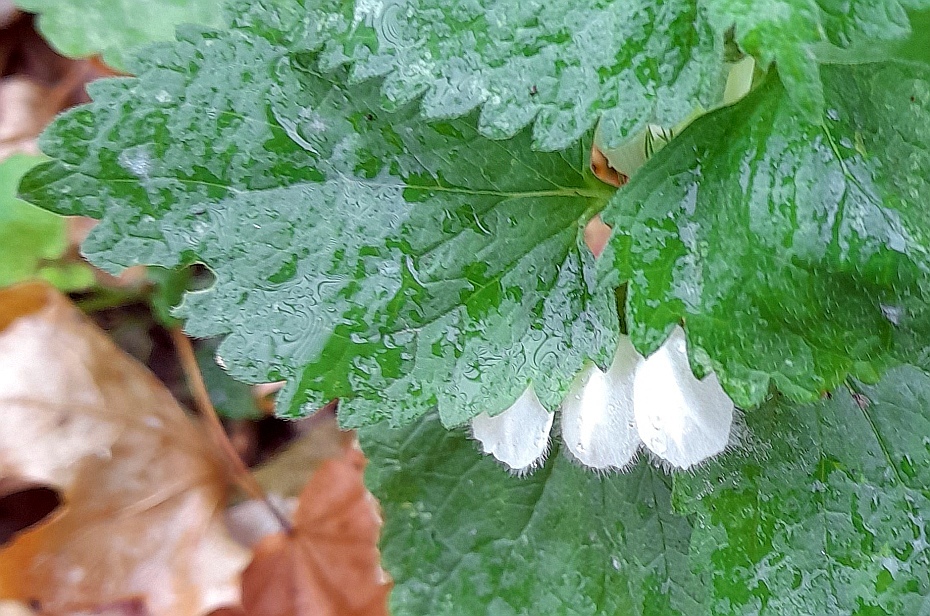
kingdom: Plantae
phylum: Tracheophyta
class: Magnoliopsida
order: Lamiales
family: Lamiaceae
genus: Lamium
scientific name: Lamium album
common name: White dead-nettle
